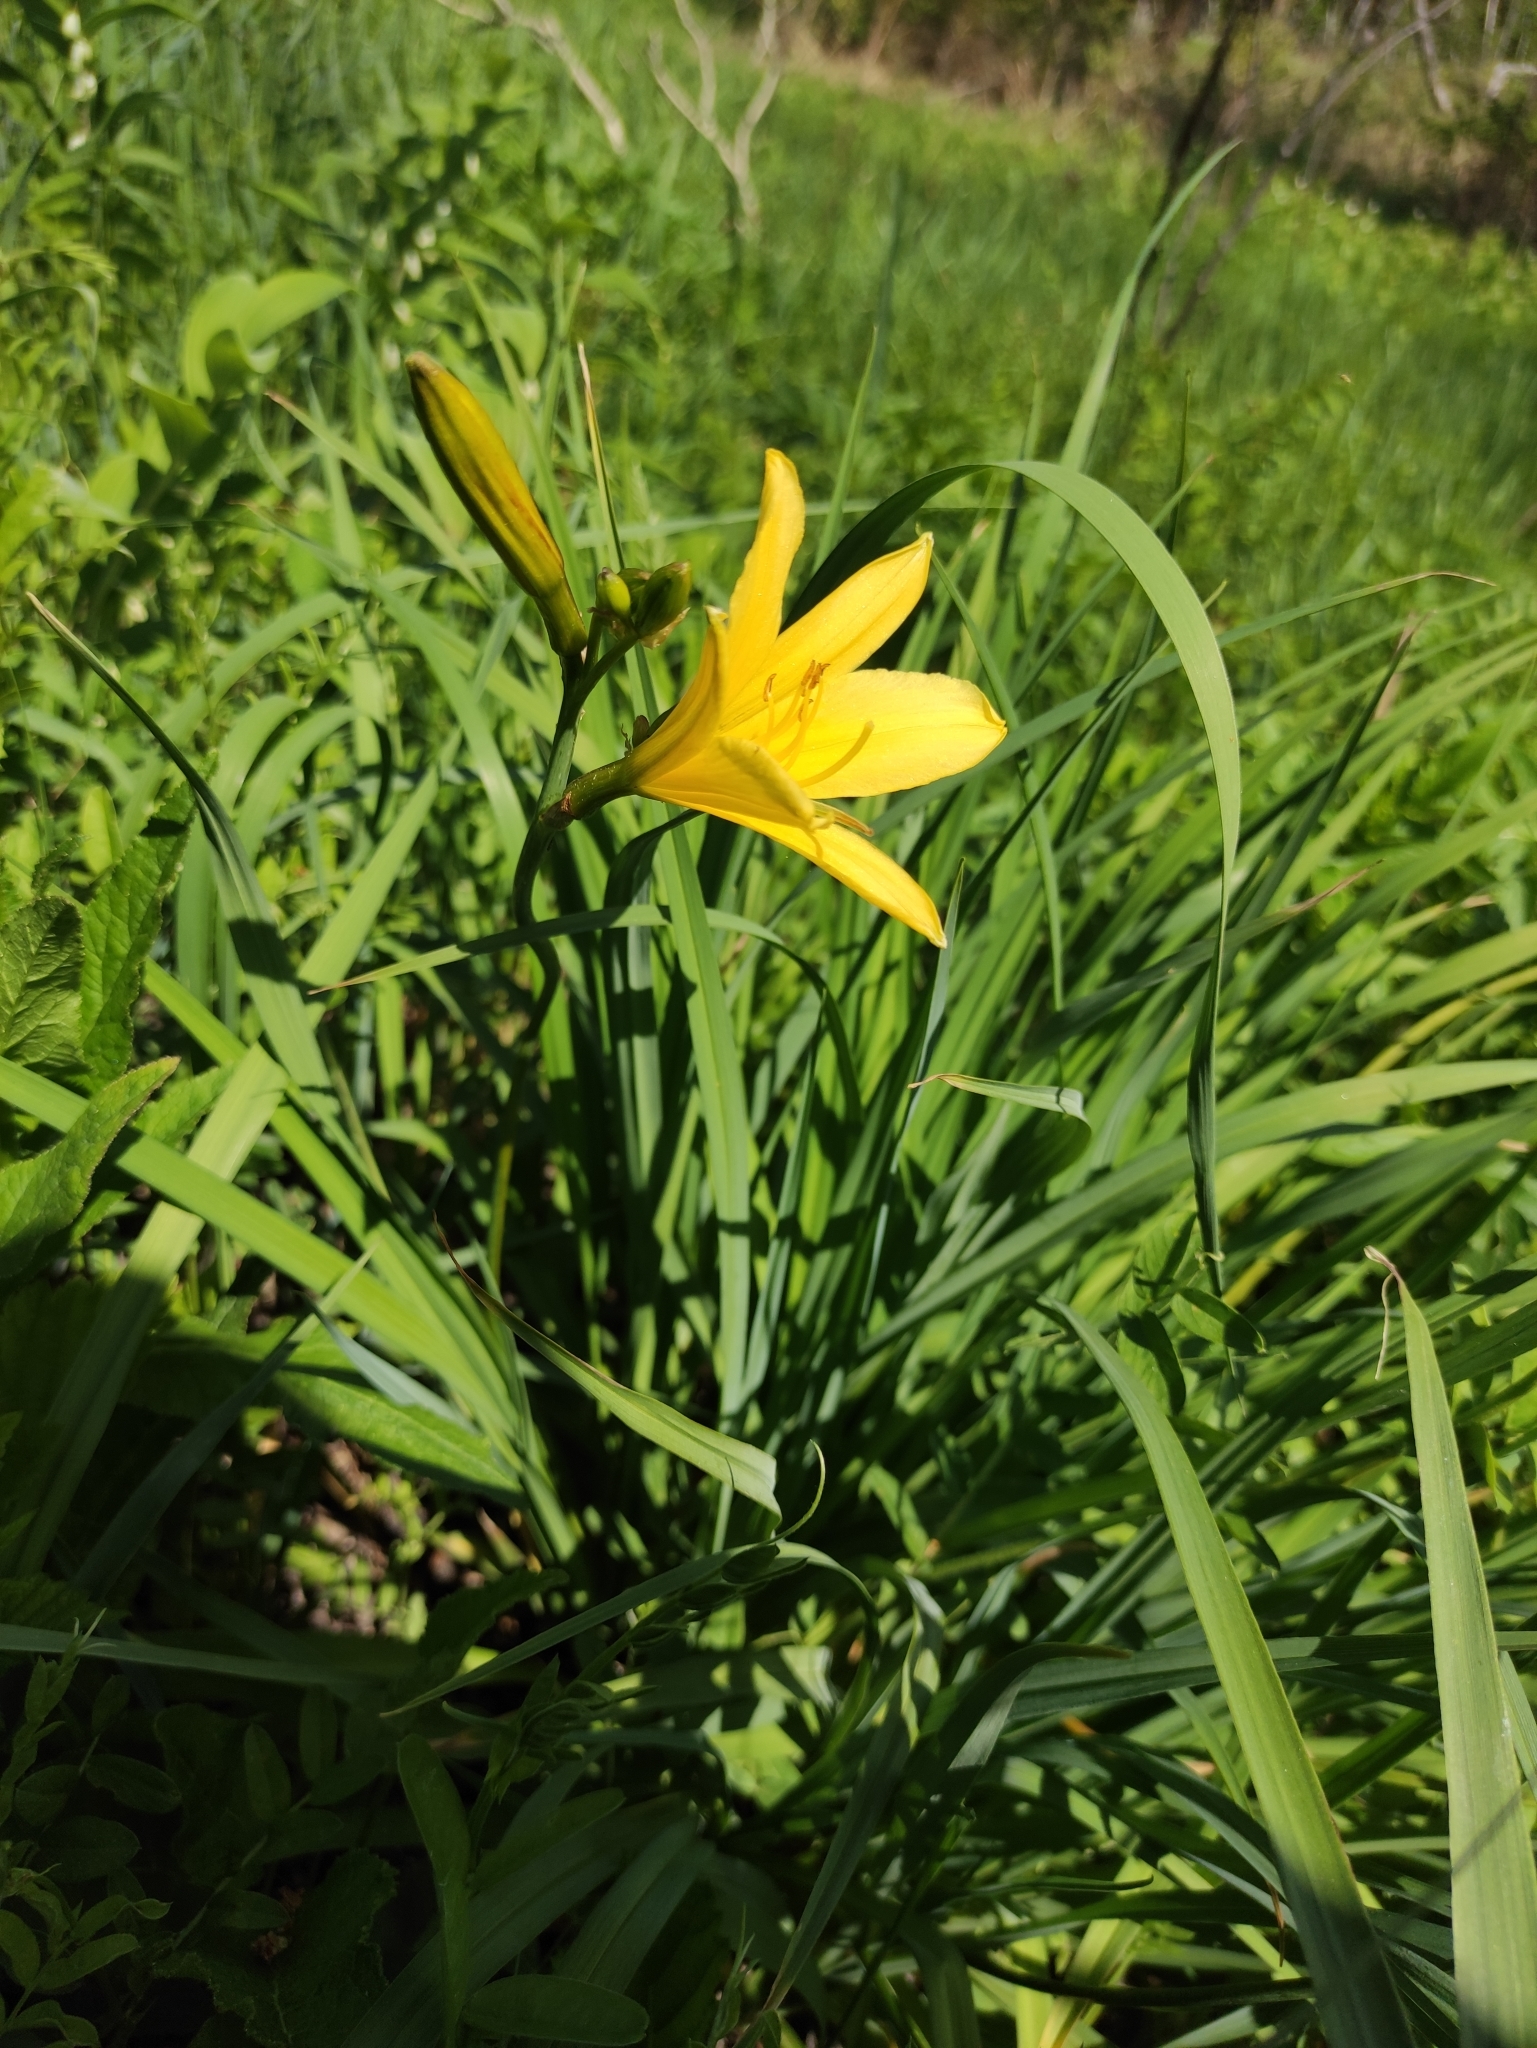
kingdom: Plantae
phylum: Tracheophyta
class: Liliopsida
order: Asparagales
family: Asphodelaceae
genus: Hemerocallis
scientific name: Hemerocallis minor
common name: Small daylily
